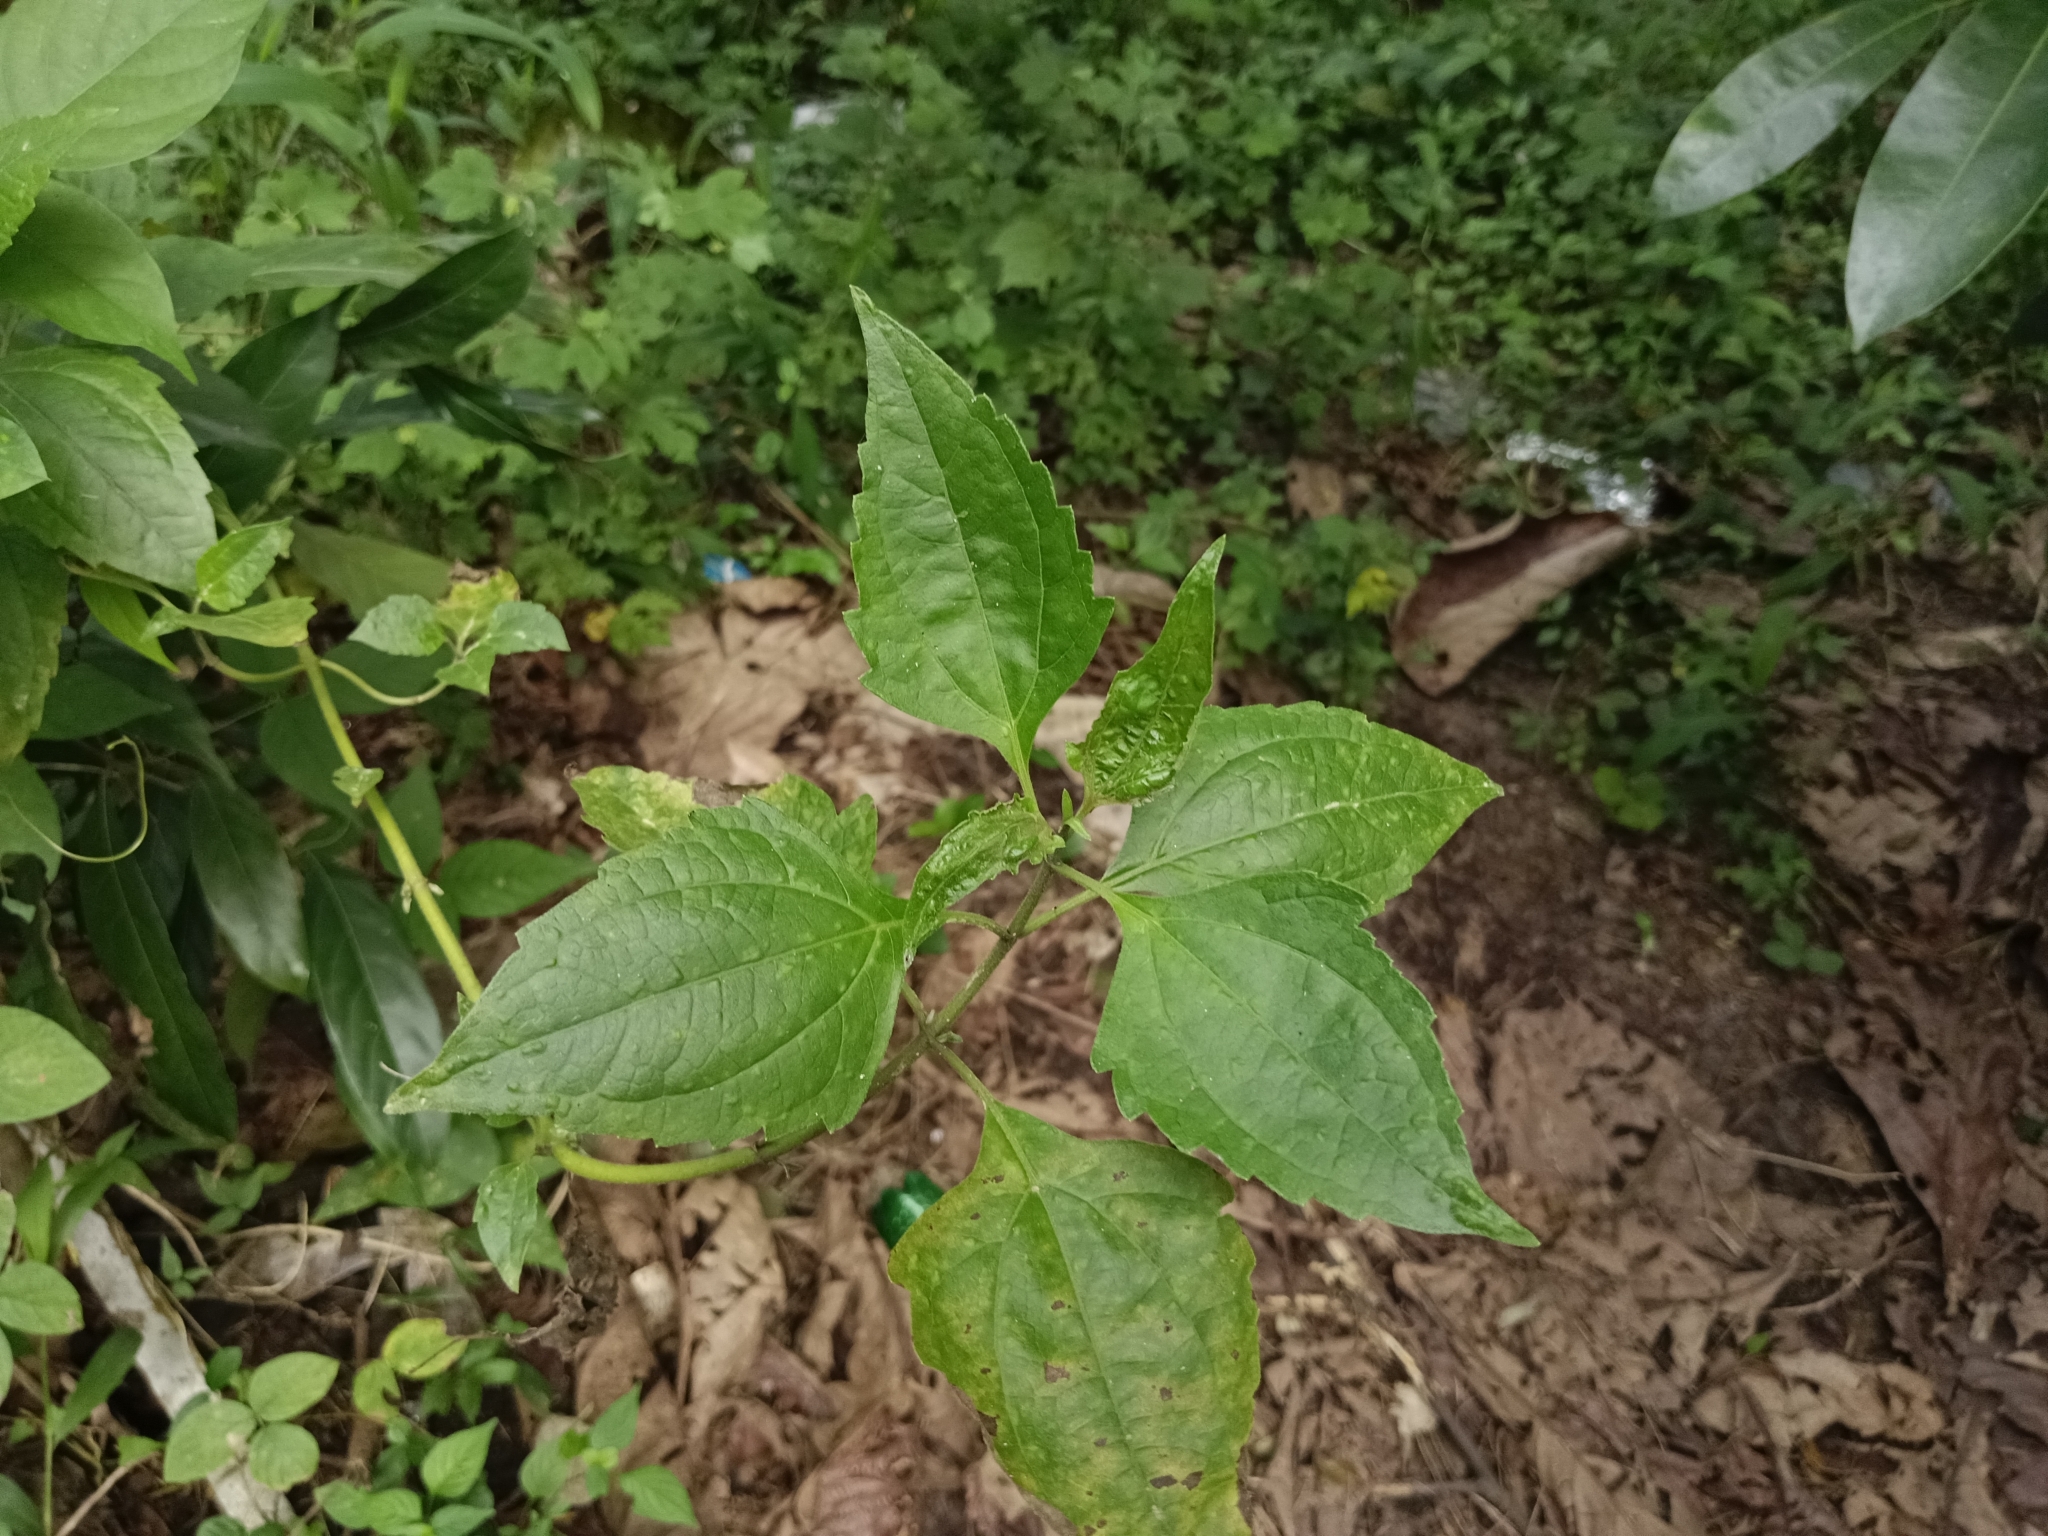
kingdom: Plantae
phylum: Tracheophyta
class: Magnoliopsida
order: Asterales
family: Asteraceae
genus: Chromolaena
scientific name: Chromolaena odorata
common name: Siamweed
